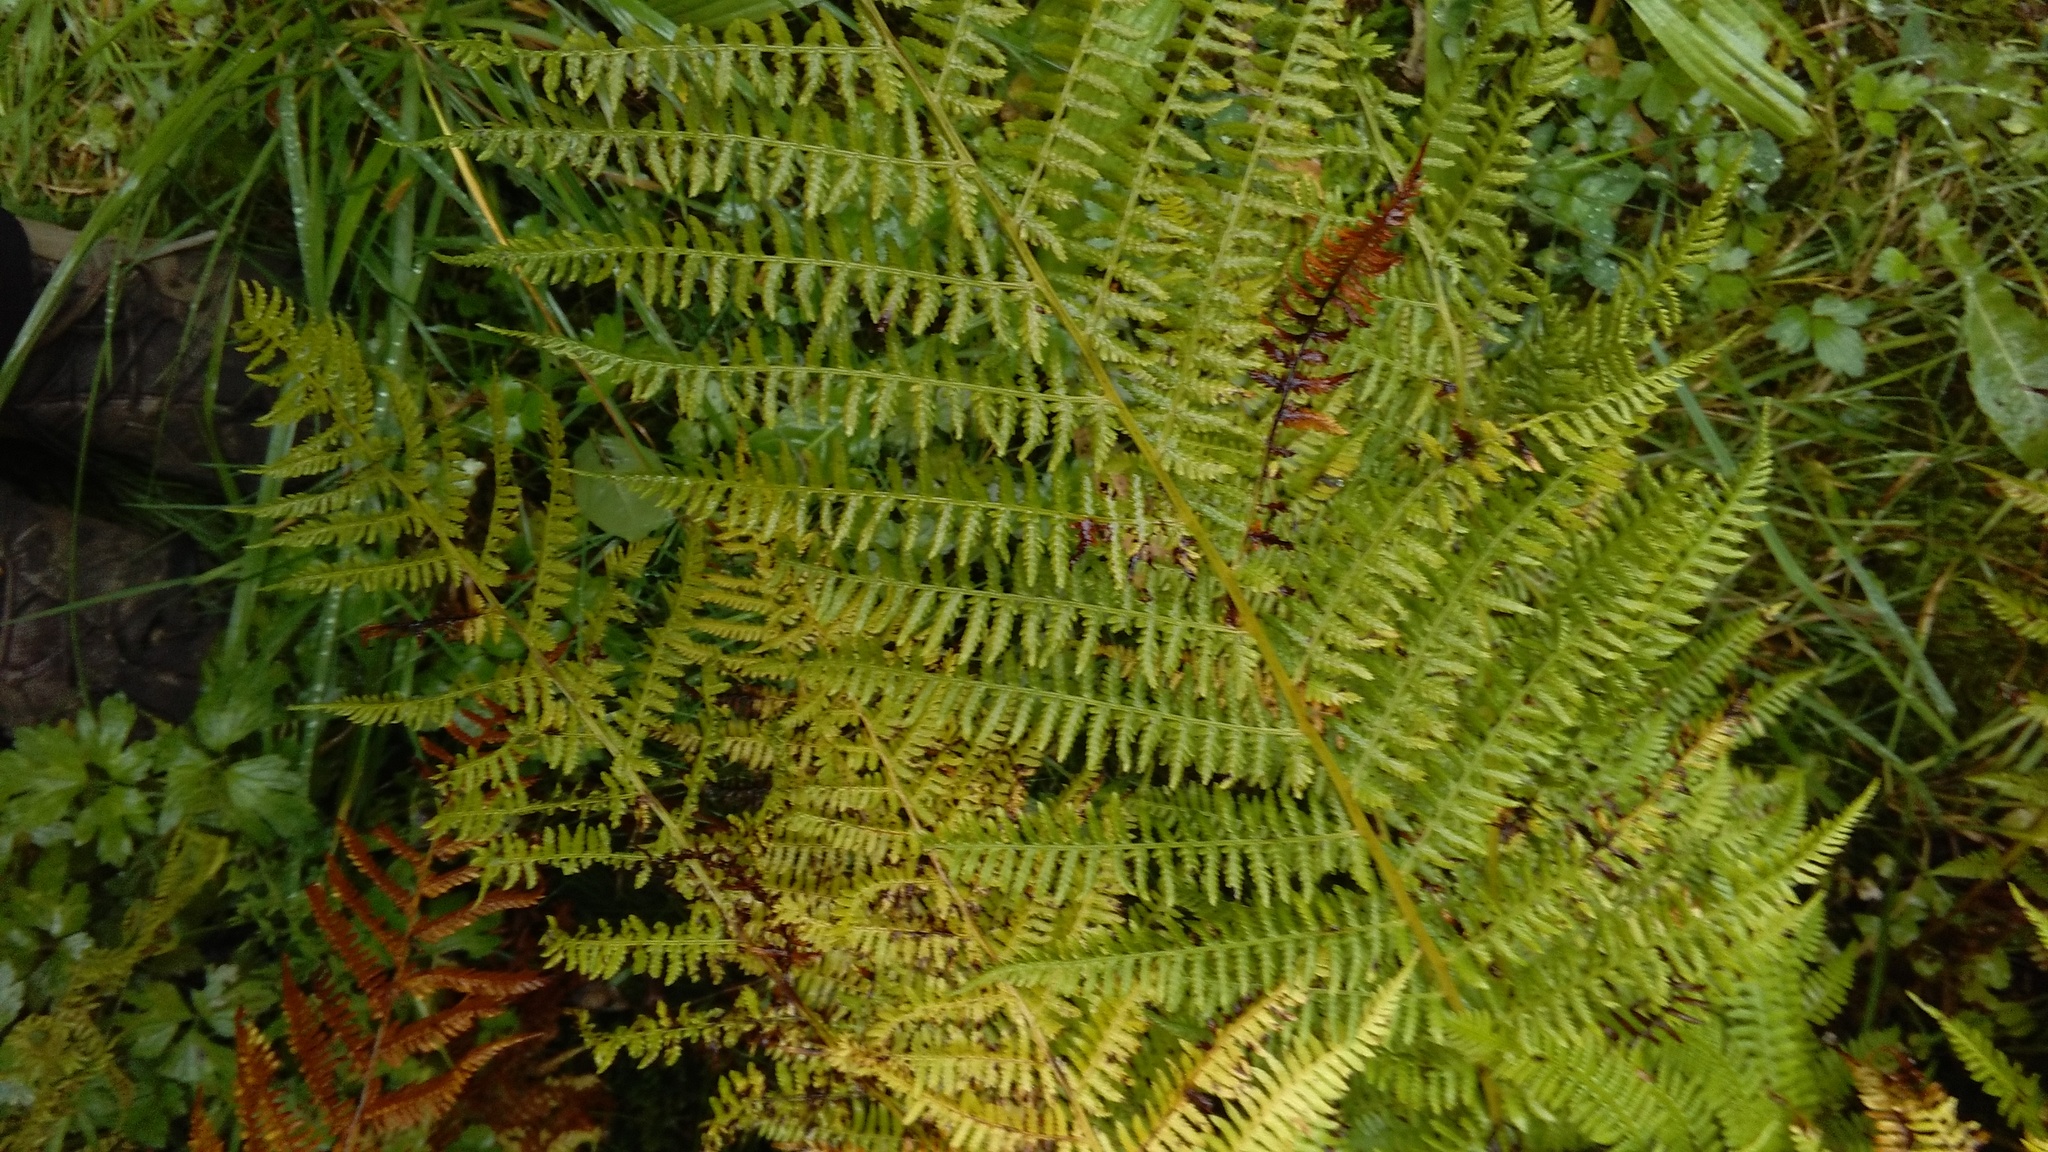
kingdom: Plantae
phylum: Tracheophyta
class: Polypodiopsida
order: Polypodiales
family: Athyriaceae
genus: Athyrium
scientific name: Athyrium filix-femina
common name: Lady fern
